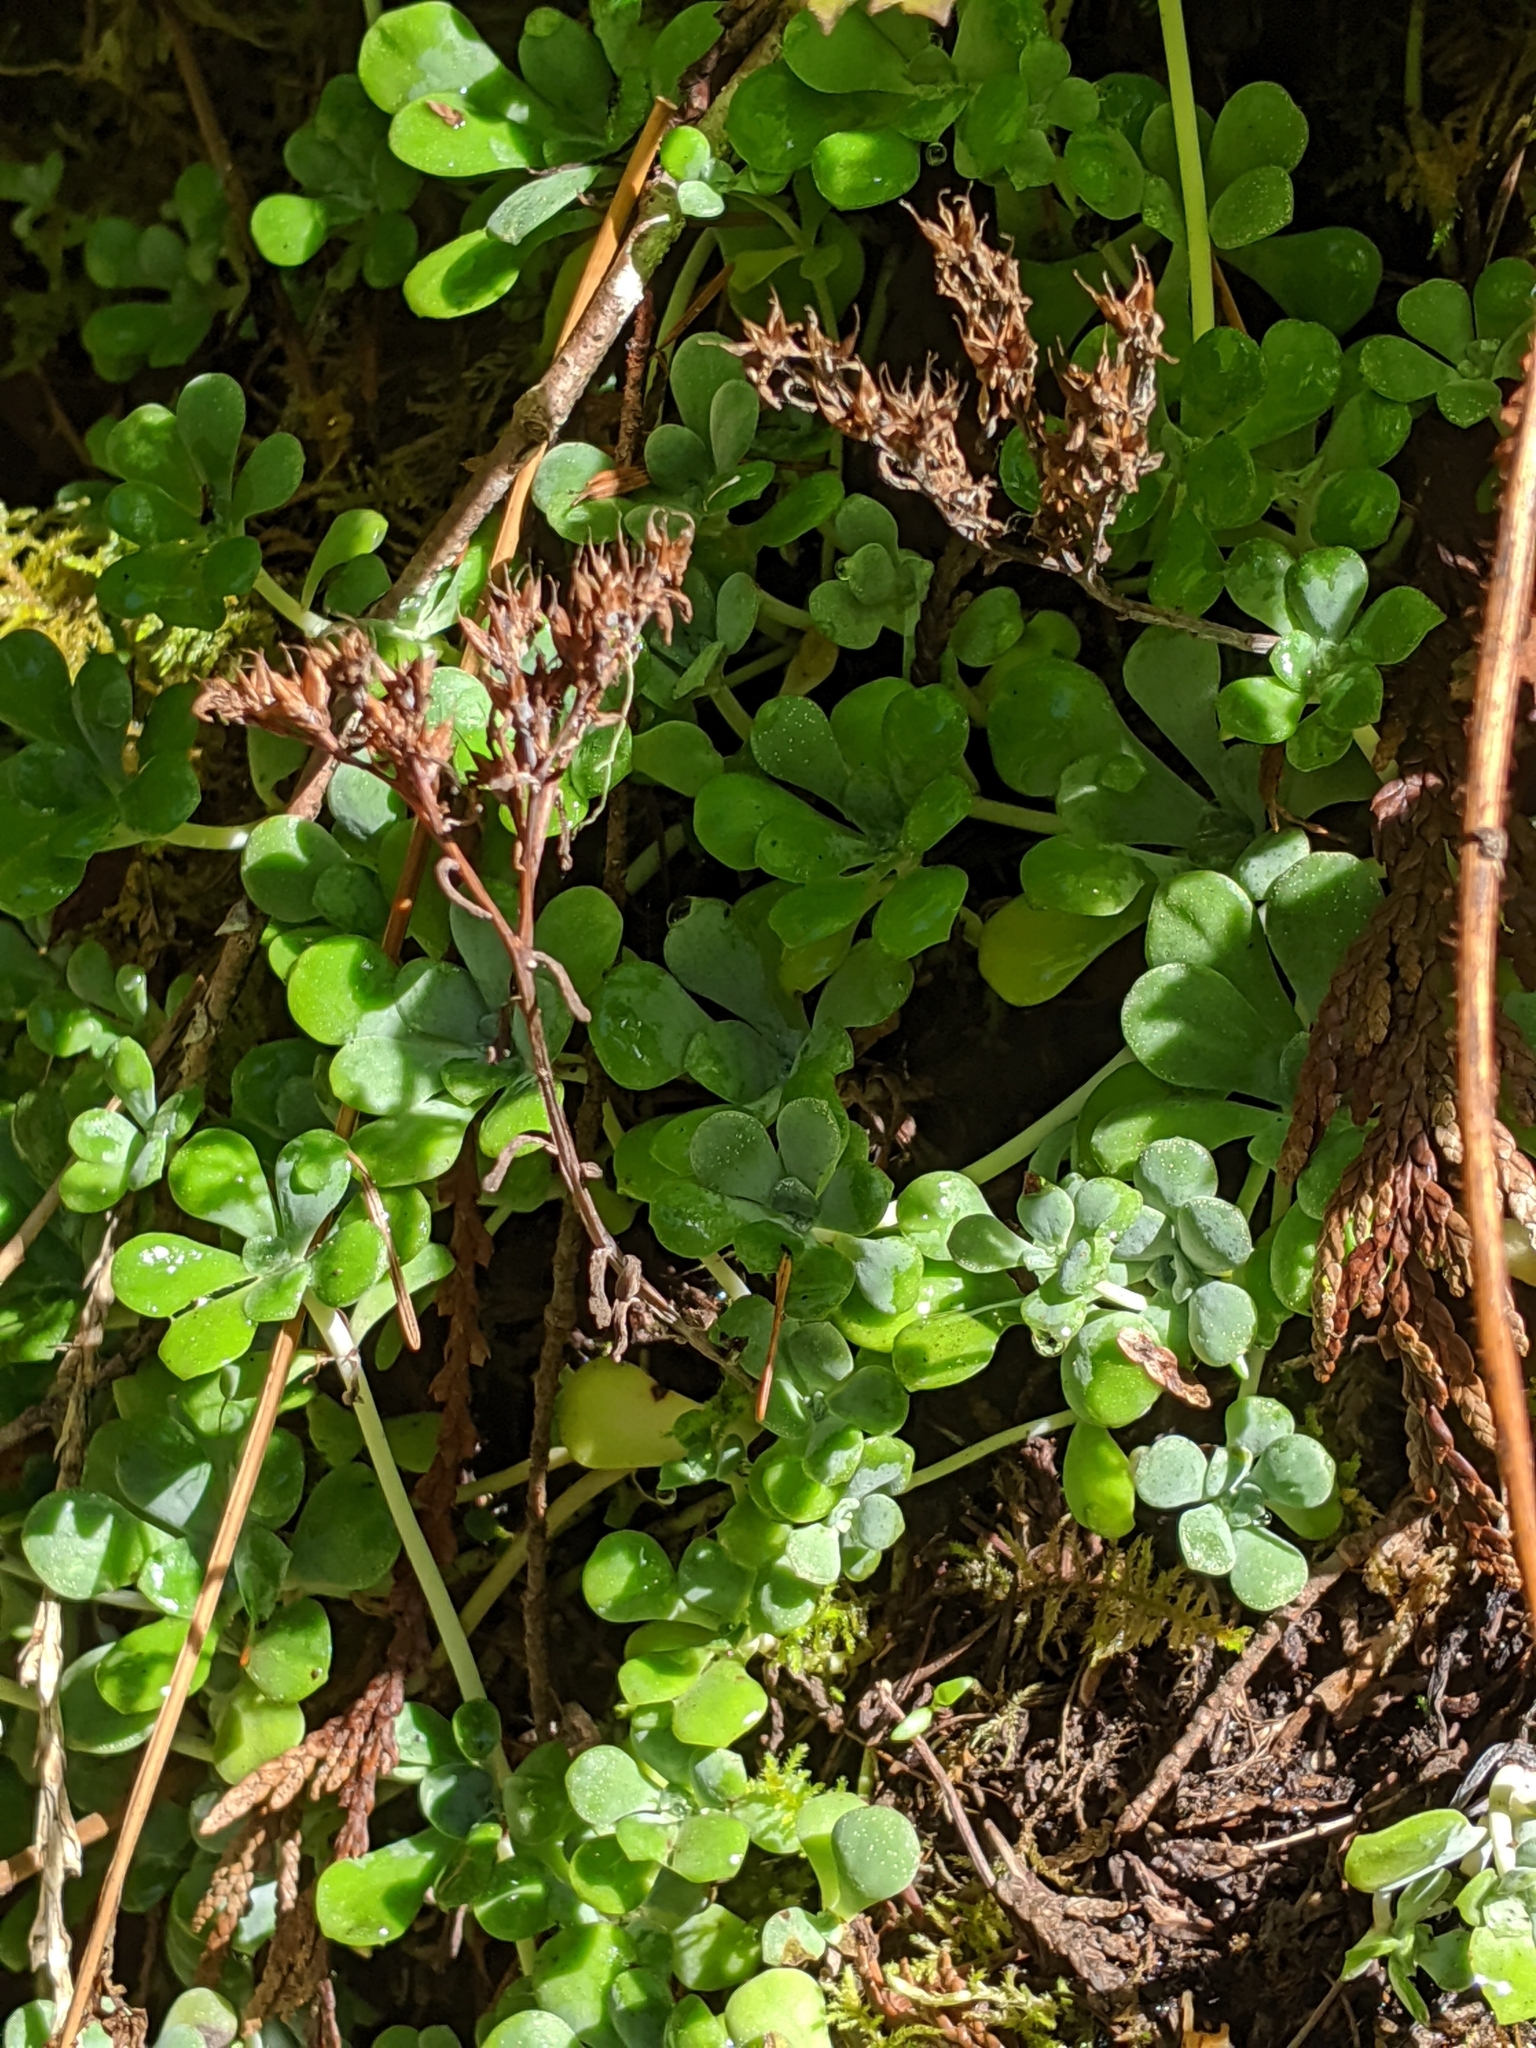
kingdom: Plantae
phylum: Tracheophyta
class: Magnoliopsida
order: Saxifragales
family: Crassulaceae
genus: Sedum
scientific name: Sedum spathulifolium
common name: Colorado stonecrop
